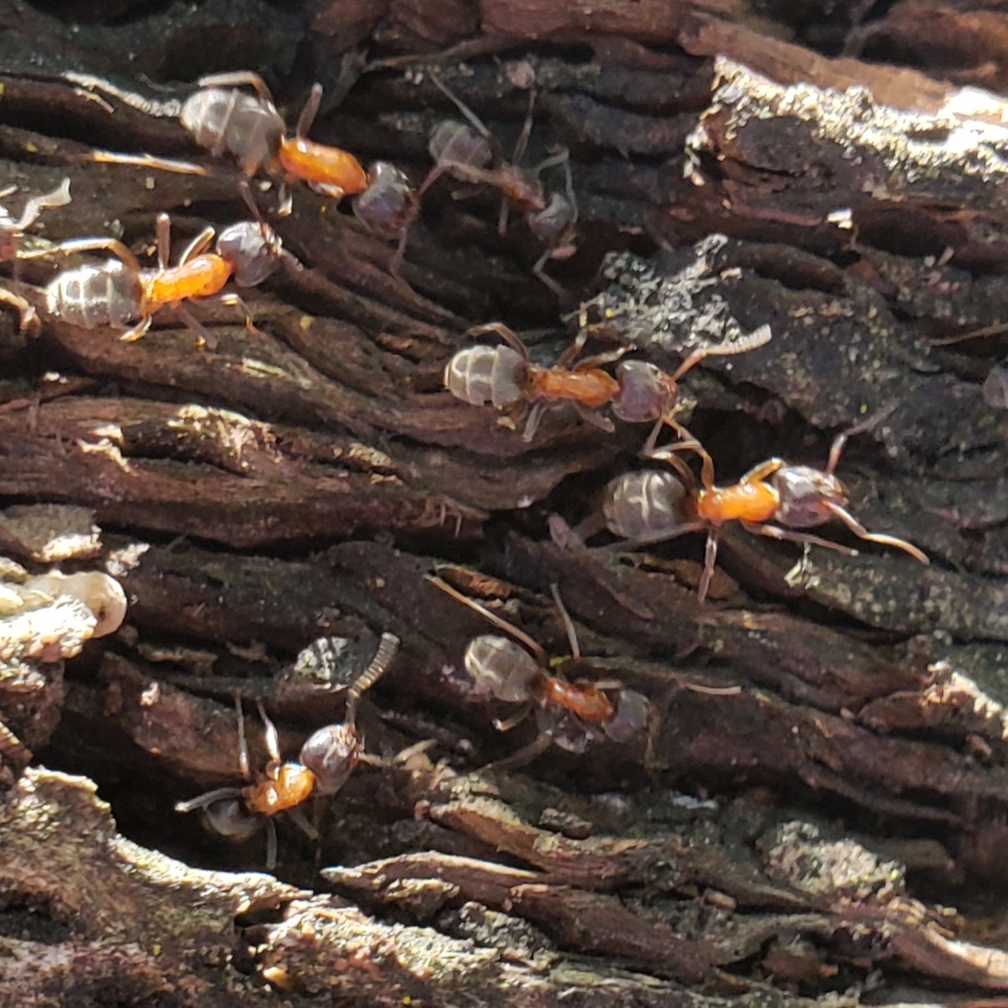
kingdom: Animalia
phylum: Arthropoda
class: Insecta
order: Hymenoptera
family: Formicidae
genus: Liometopum
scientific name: Liometopum occidentale
